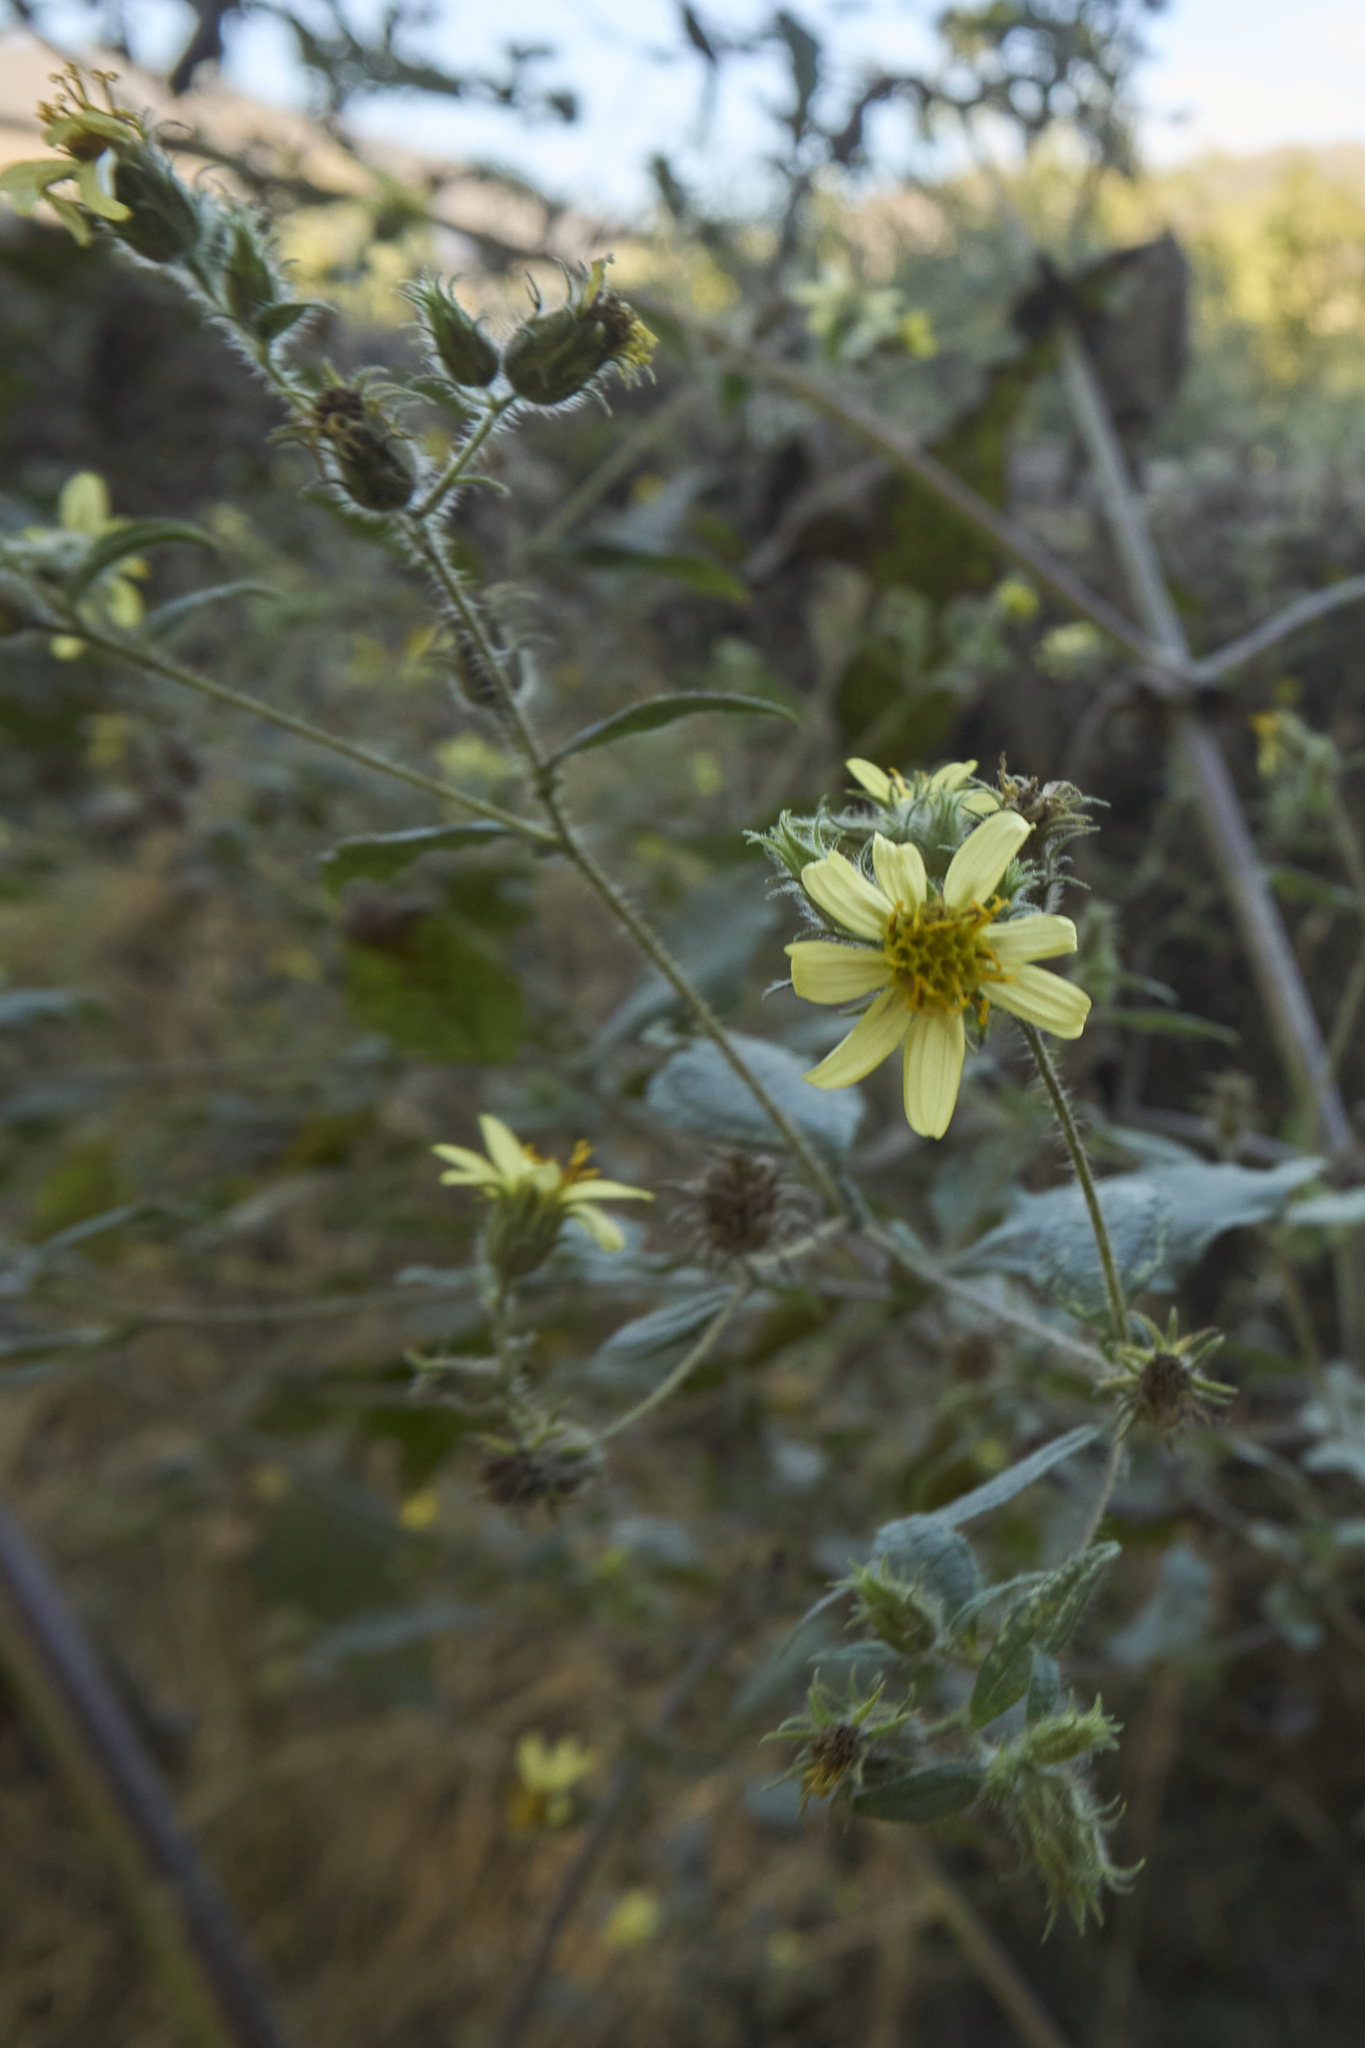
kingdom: Plantae
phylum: Tracheophyta
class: Magnoliopsida
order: Asterales
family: Asteraceae
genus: Simsia
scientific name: Simsia foetida
